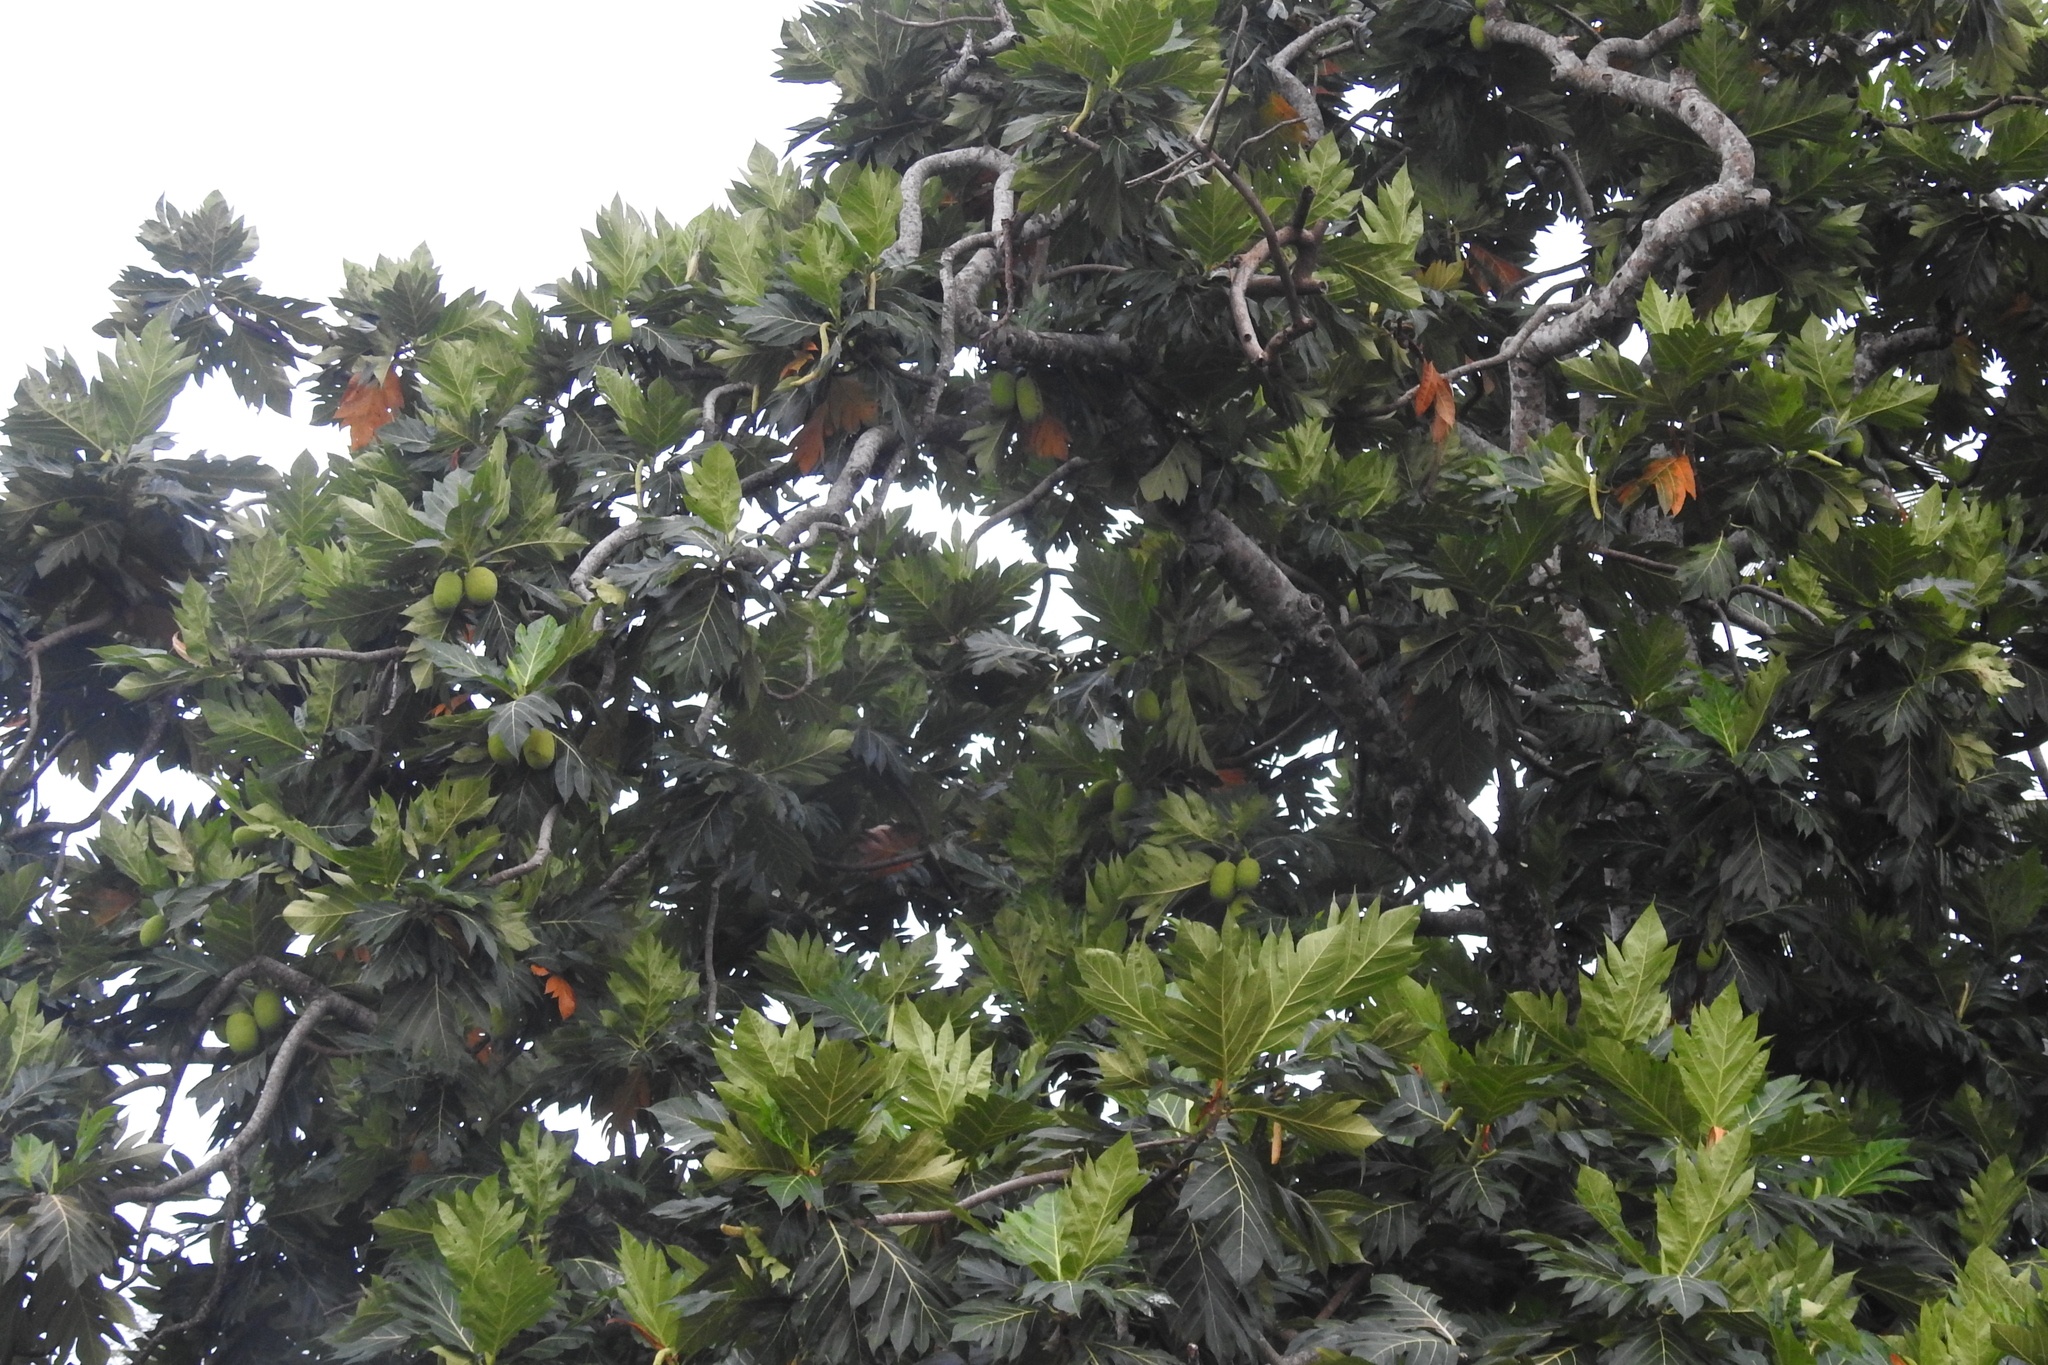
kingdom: Plantae
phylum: Tracheophyta
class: Magnoliopsida
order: Rosales
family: Moraceae
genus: Artocarpus
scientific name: Artocarpus altilis
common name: Breadfruit
